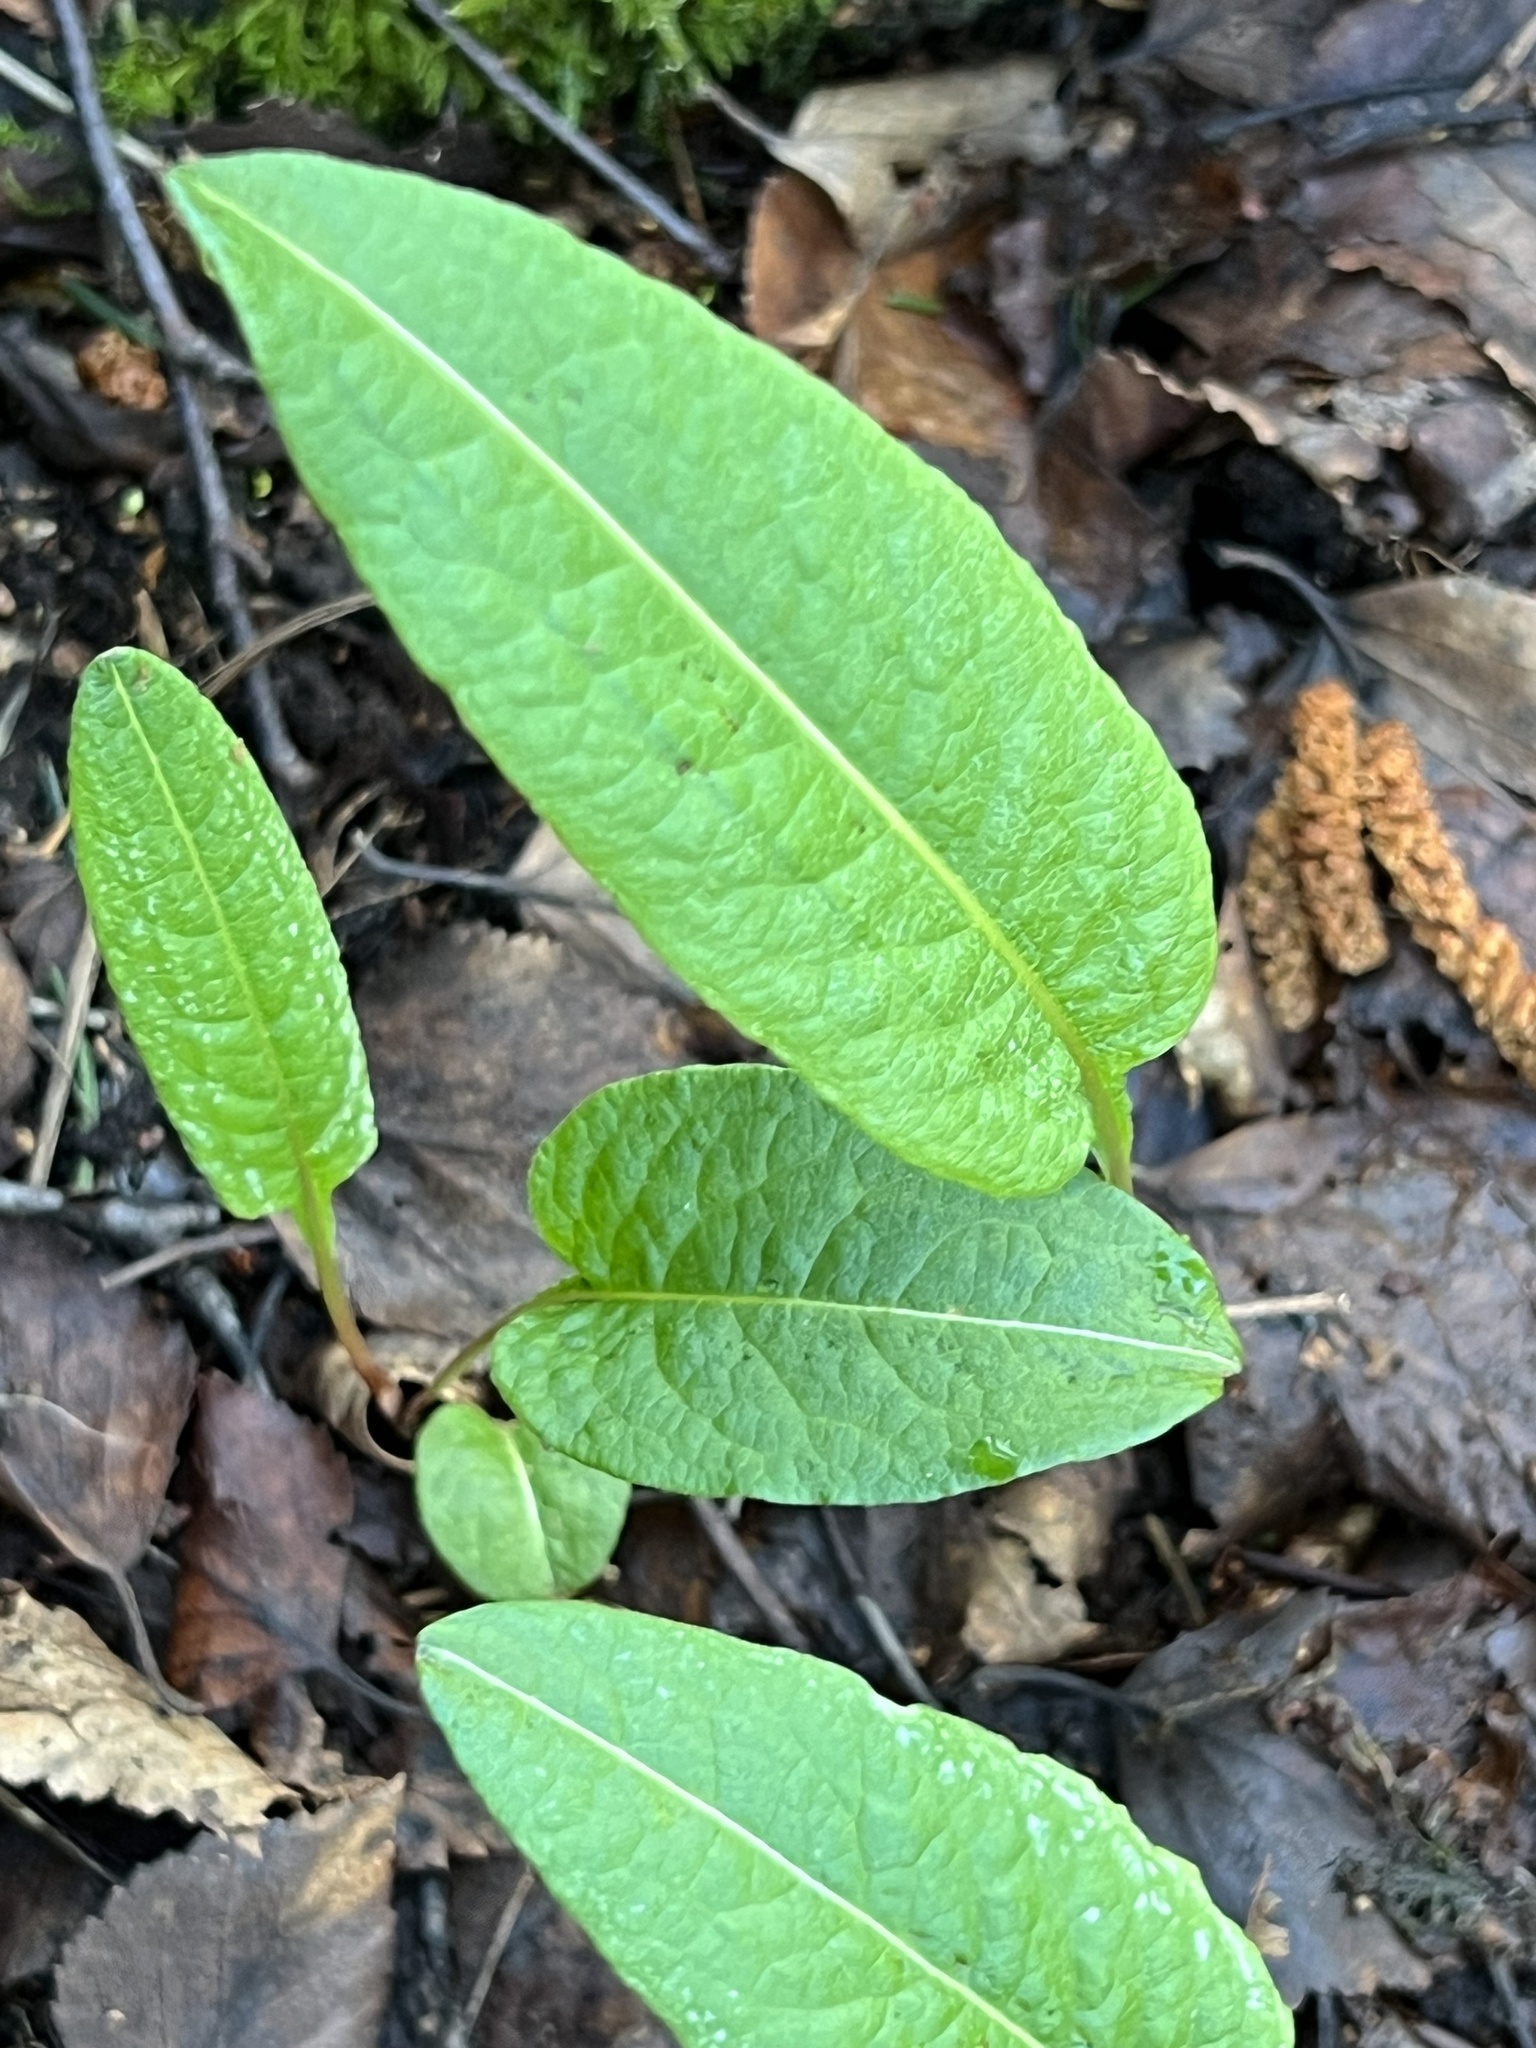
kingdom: Plantae
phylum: Tracheophyta
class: Magnoliopsida
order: Caryophyllales
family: Polygonaceae
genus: Bistorta
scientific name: Bistorta officinalis
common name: Common bistort
